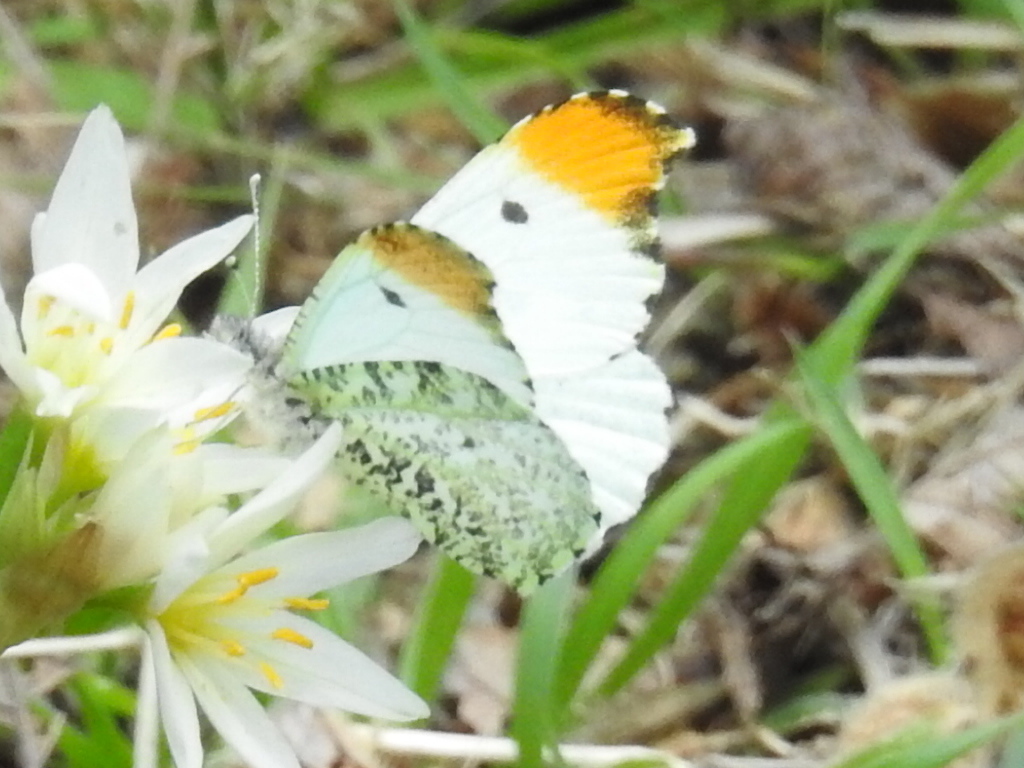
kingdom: Animalia
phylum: Arthropoda
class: Insecta
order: Lepidoptera
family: Pieridae
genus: Anthocharis
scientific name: Anthocharis midea
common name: Falcate orangetip
